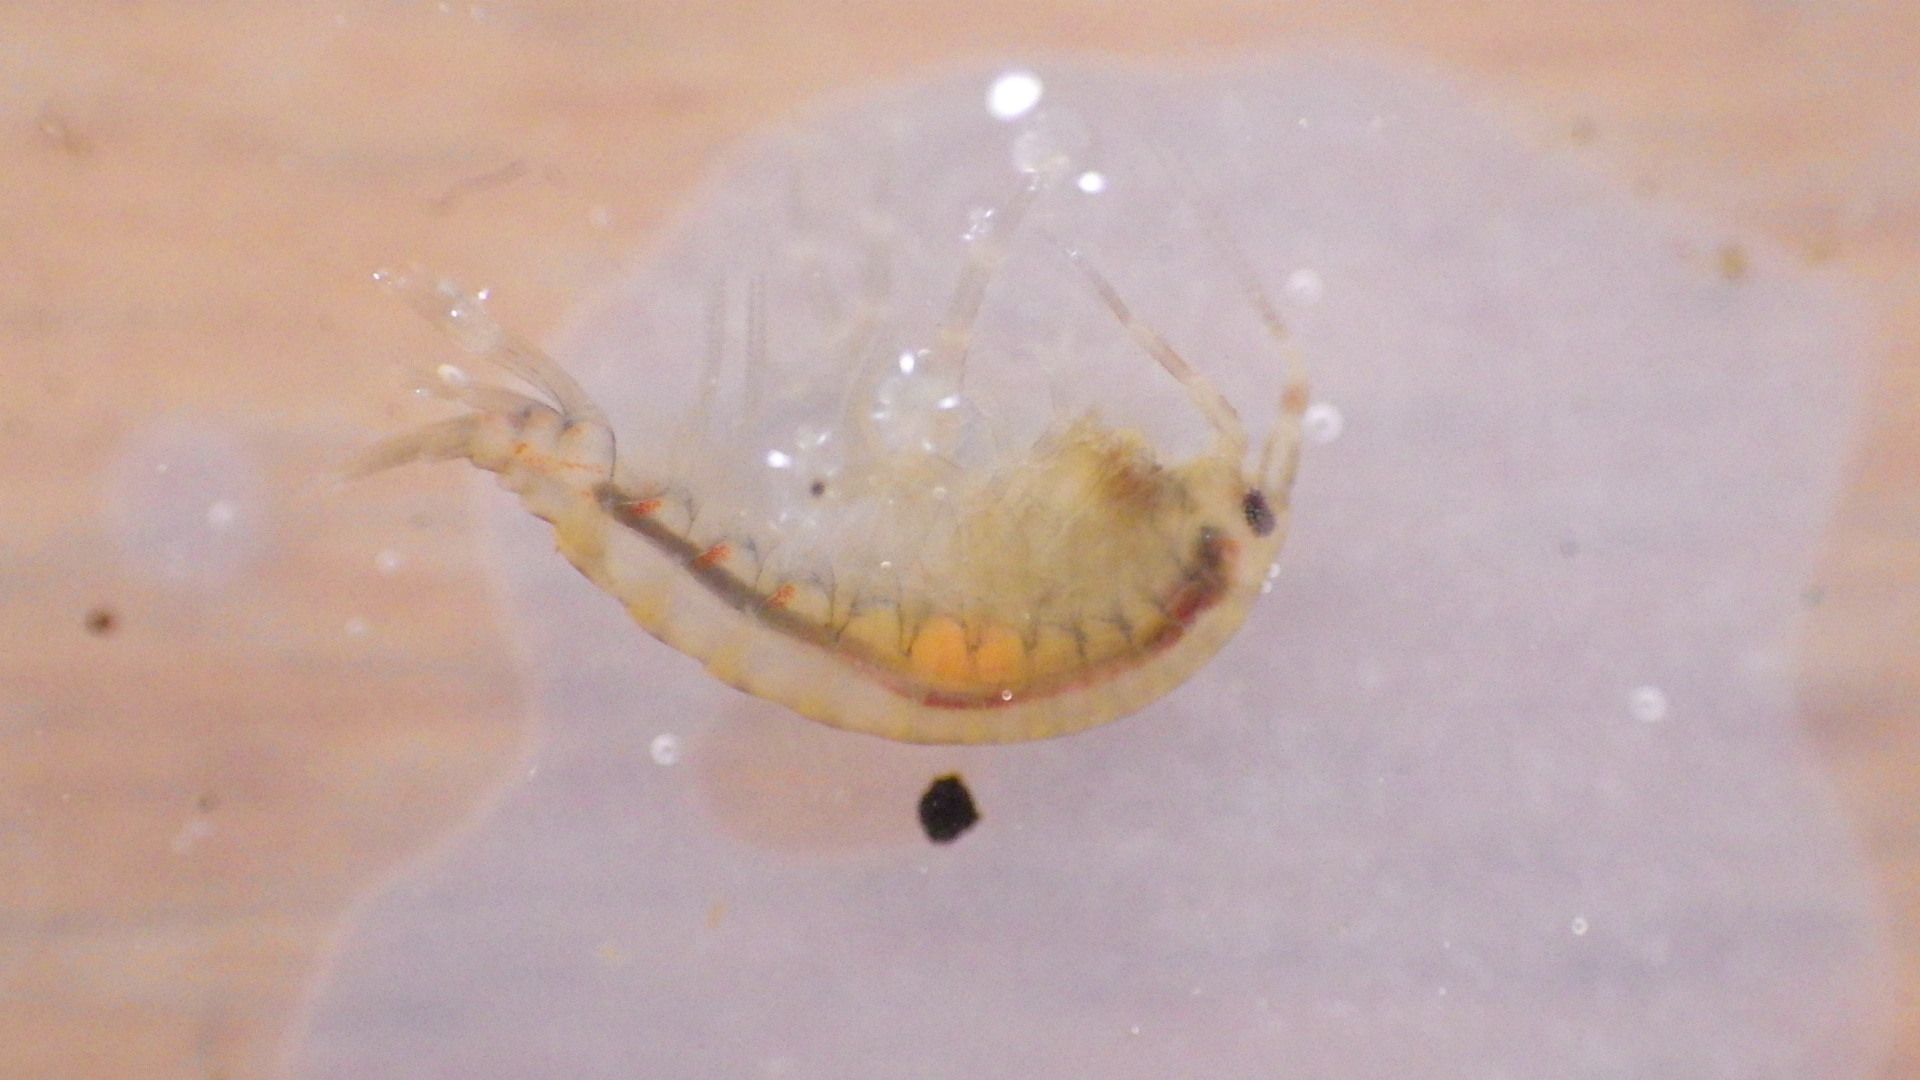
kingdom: Animalia
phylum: Arthropoda
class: Malacostraca
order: Amphipoda
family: Gammaridae
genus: Gammarus
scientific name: Gammarus fasciatus
